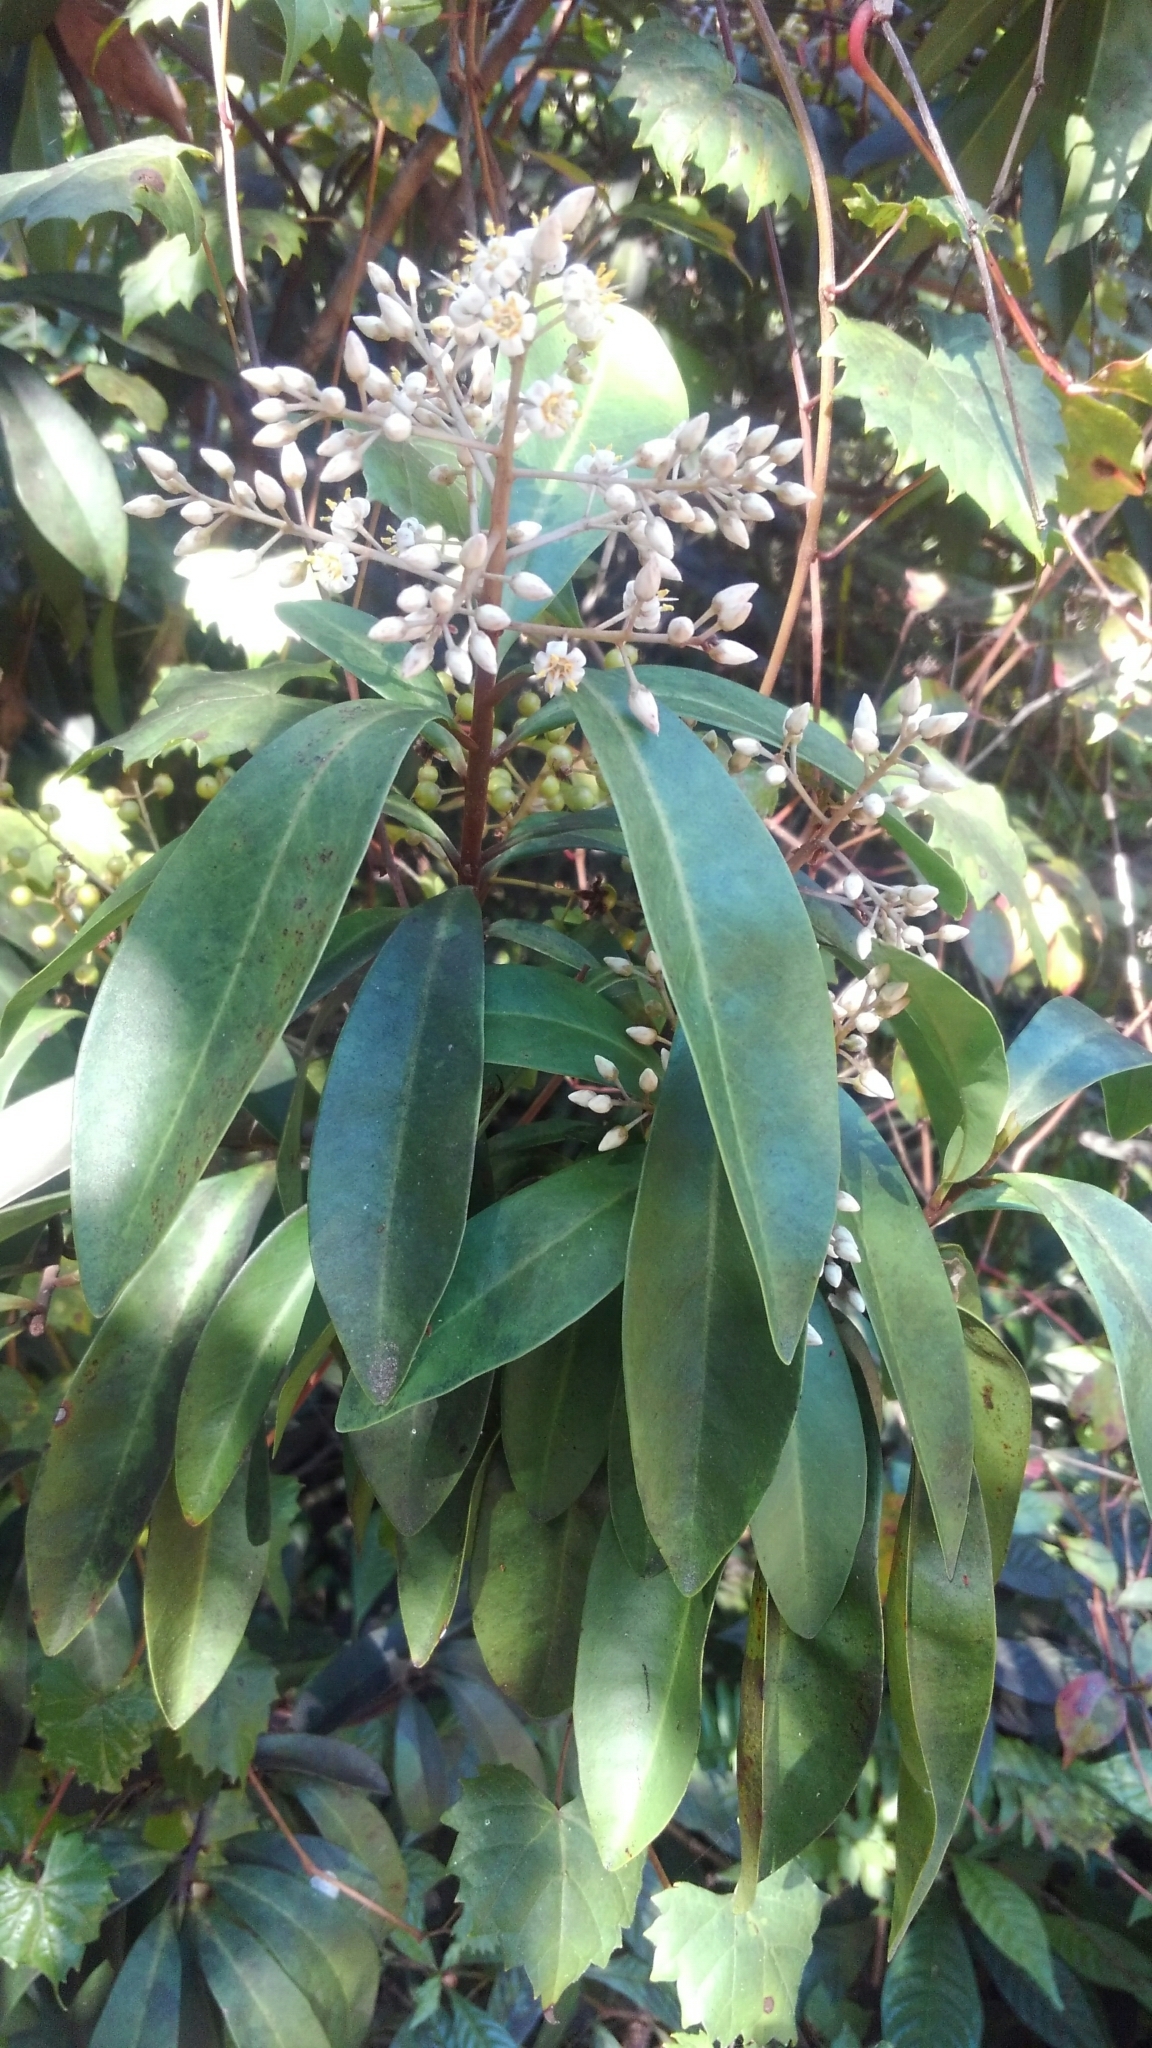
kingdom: Plantae
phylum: Tracheophyta
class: Magnoliopsida
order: Ericales
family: Primulaceae
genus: Ardisia
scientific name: Ardisia escallonioides
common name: Island marlberry
